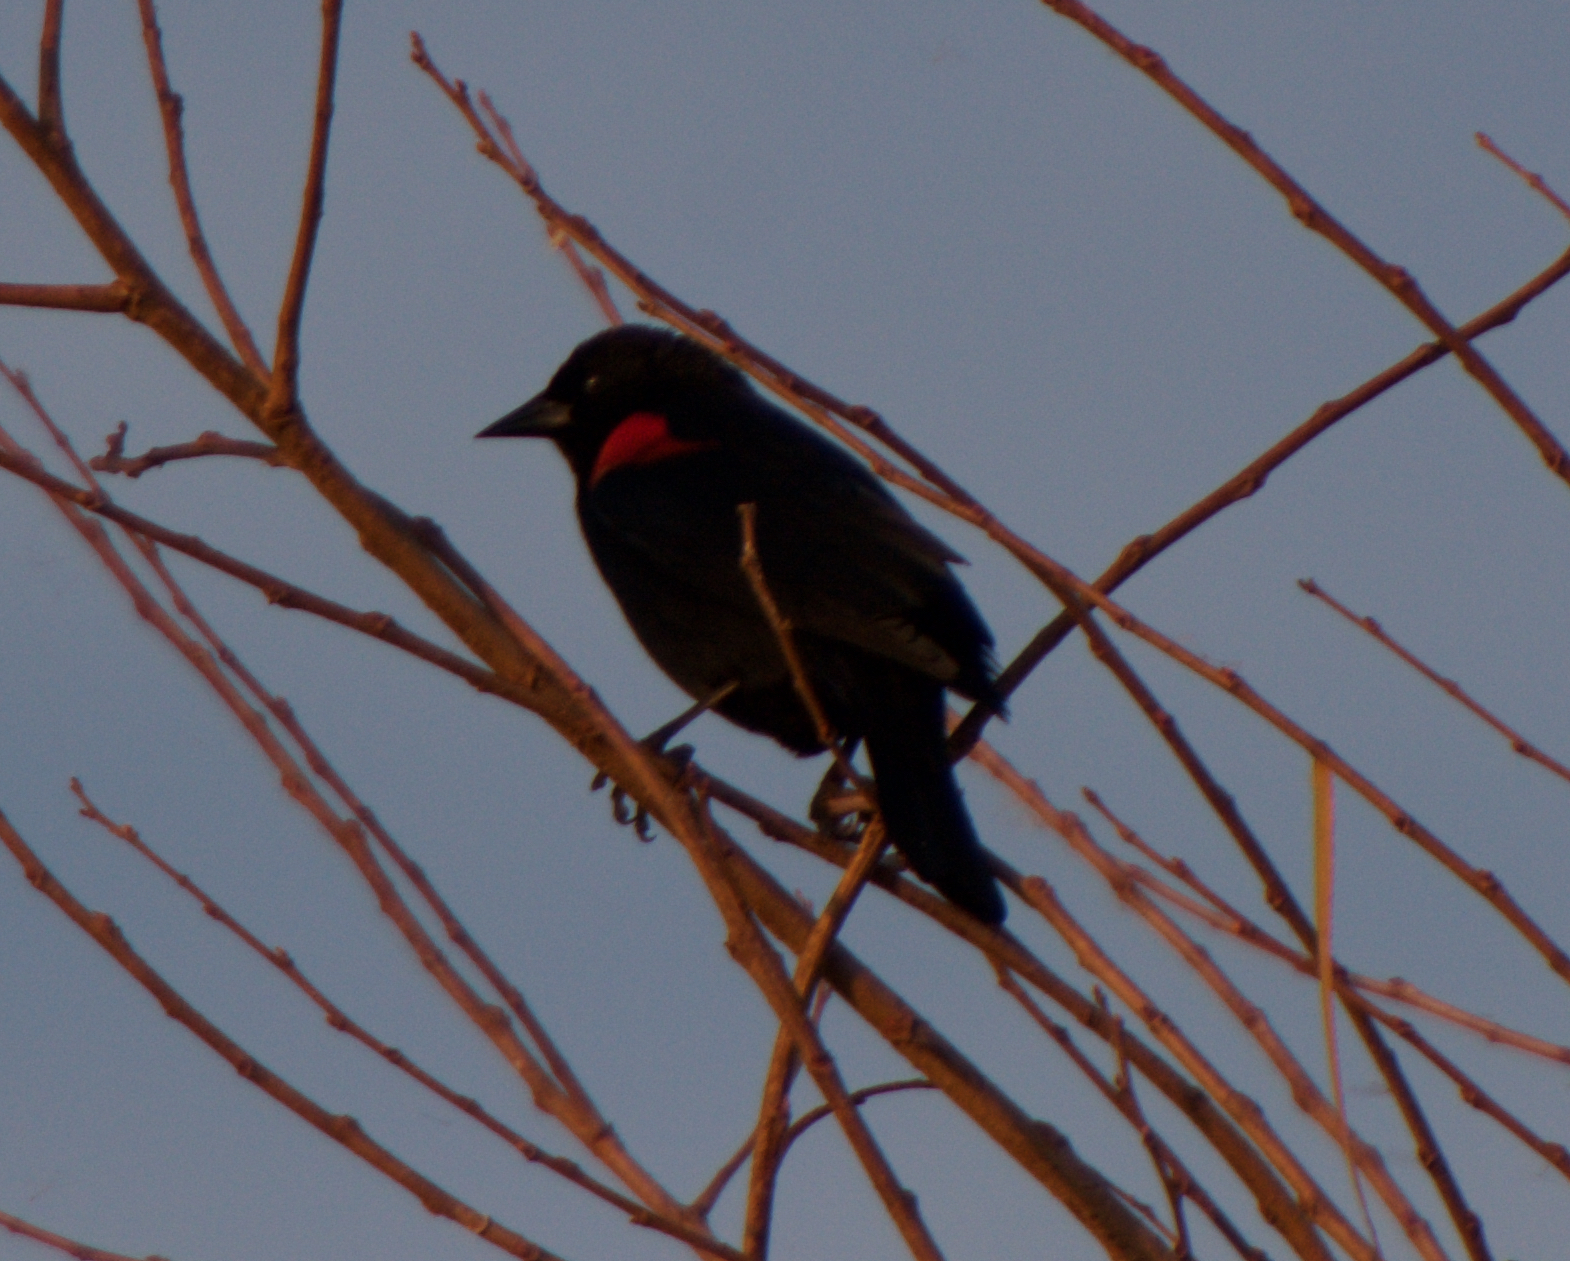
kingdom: Animalia
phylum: Chordata
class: Aves
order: Passeriformes
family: Icteridae
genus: Agelaius
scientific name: Agelaius phoeniceus
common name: Red-winged blackbird
